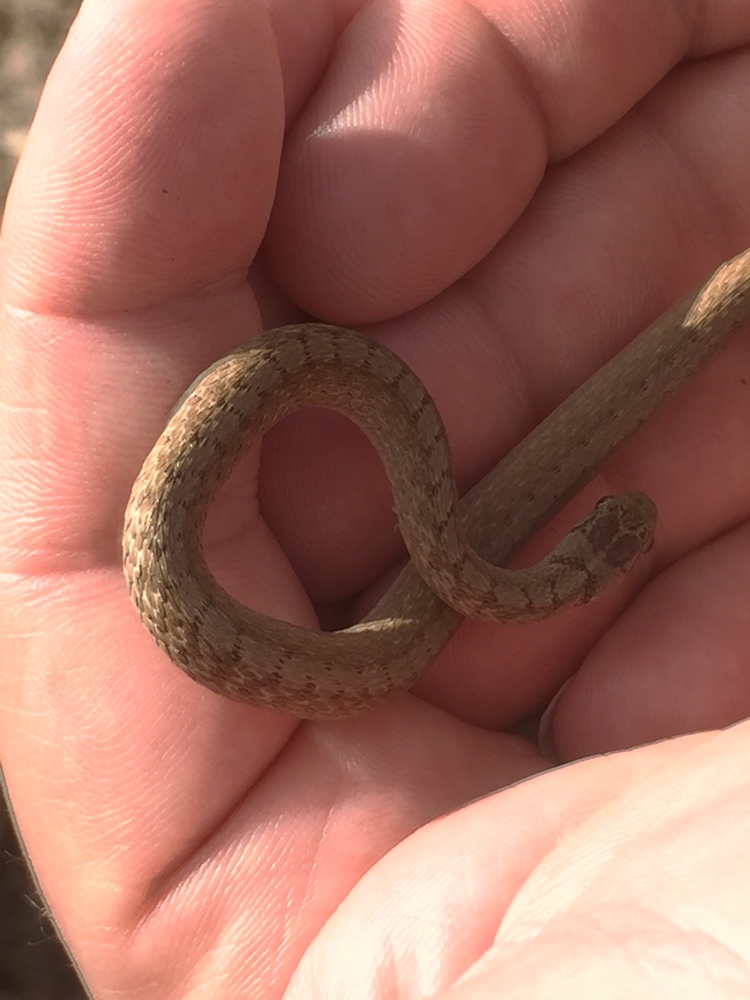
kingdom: Animalia
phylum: Chordata
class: Squamata
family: Colubridae
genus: Storeria
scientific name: Storeria dekayi
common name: (dekay’s) brown snake
